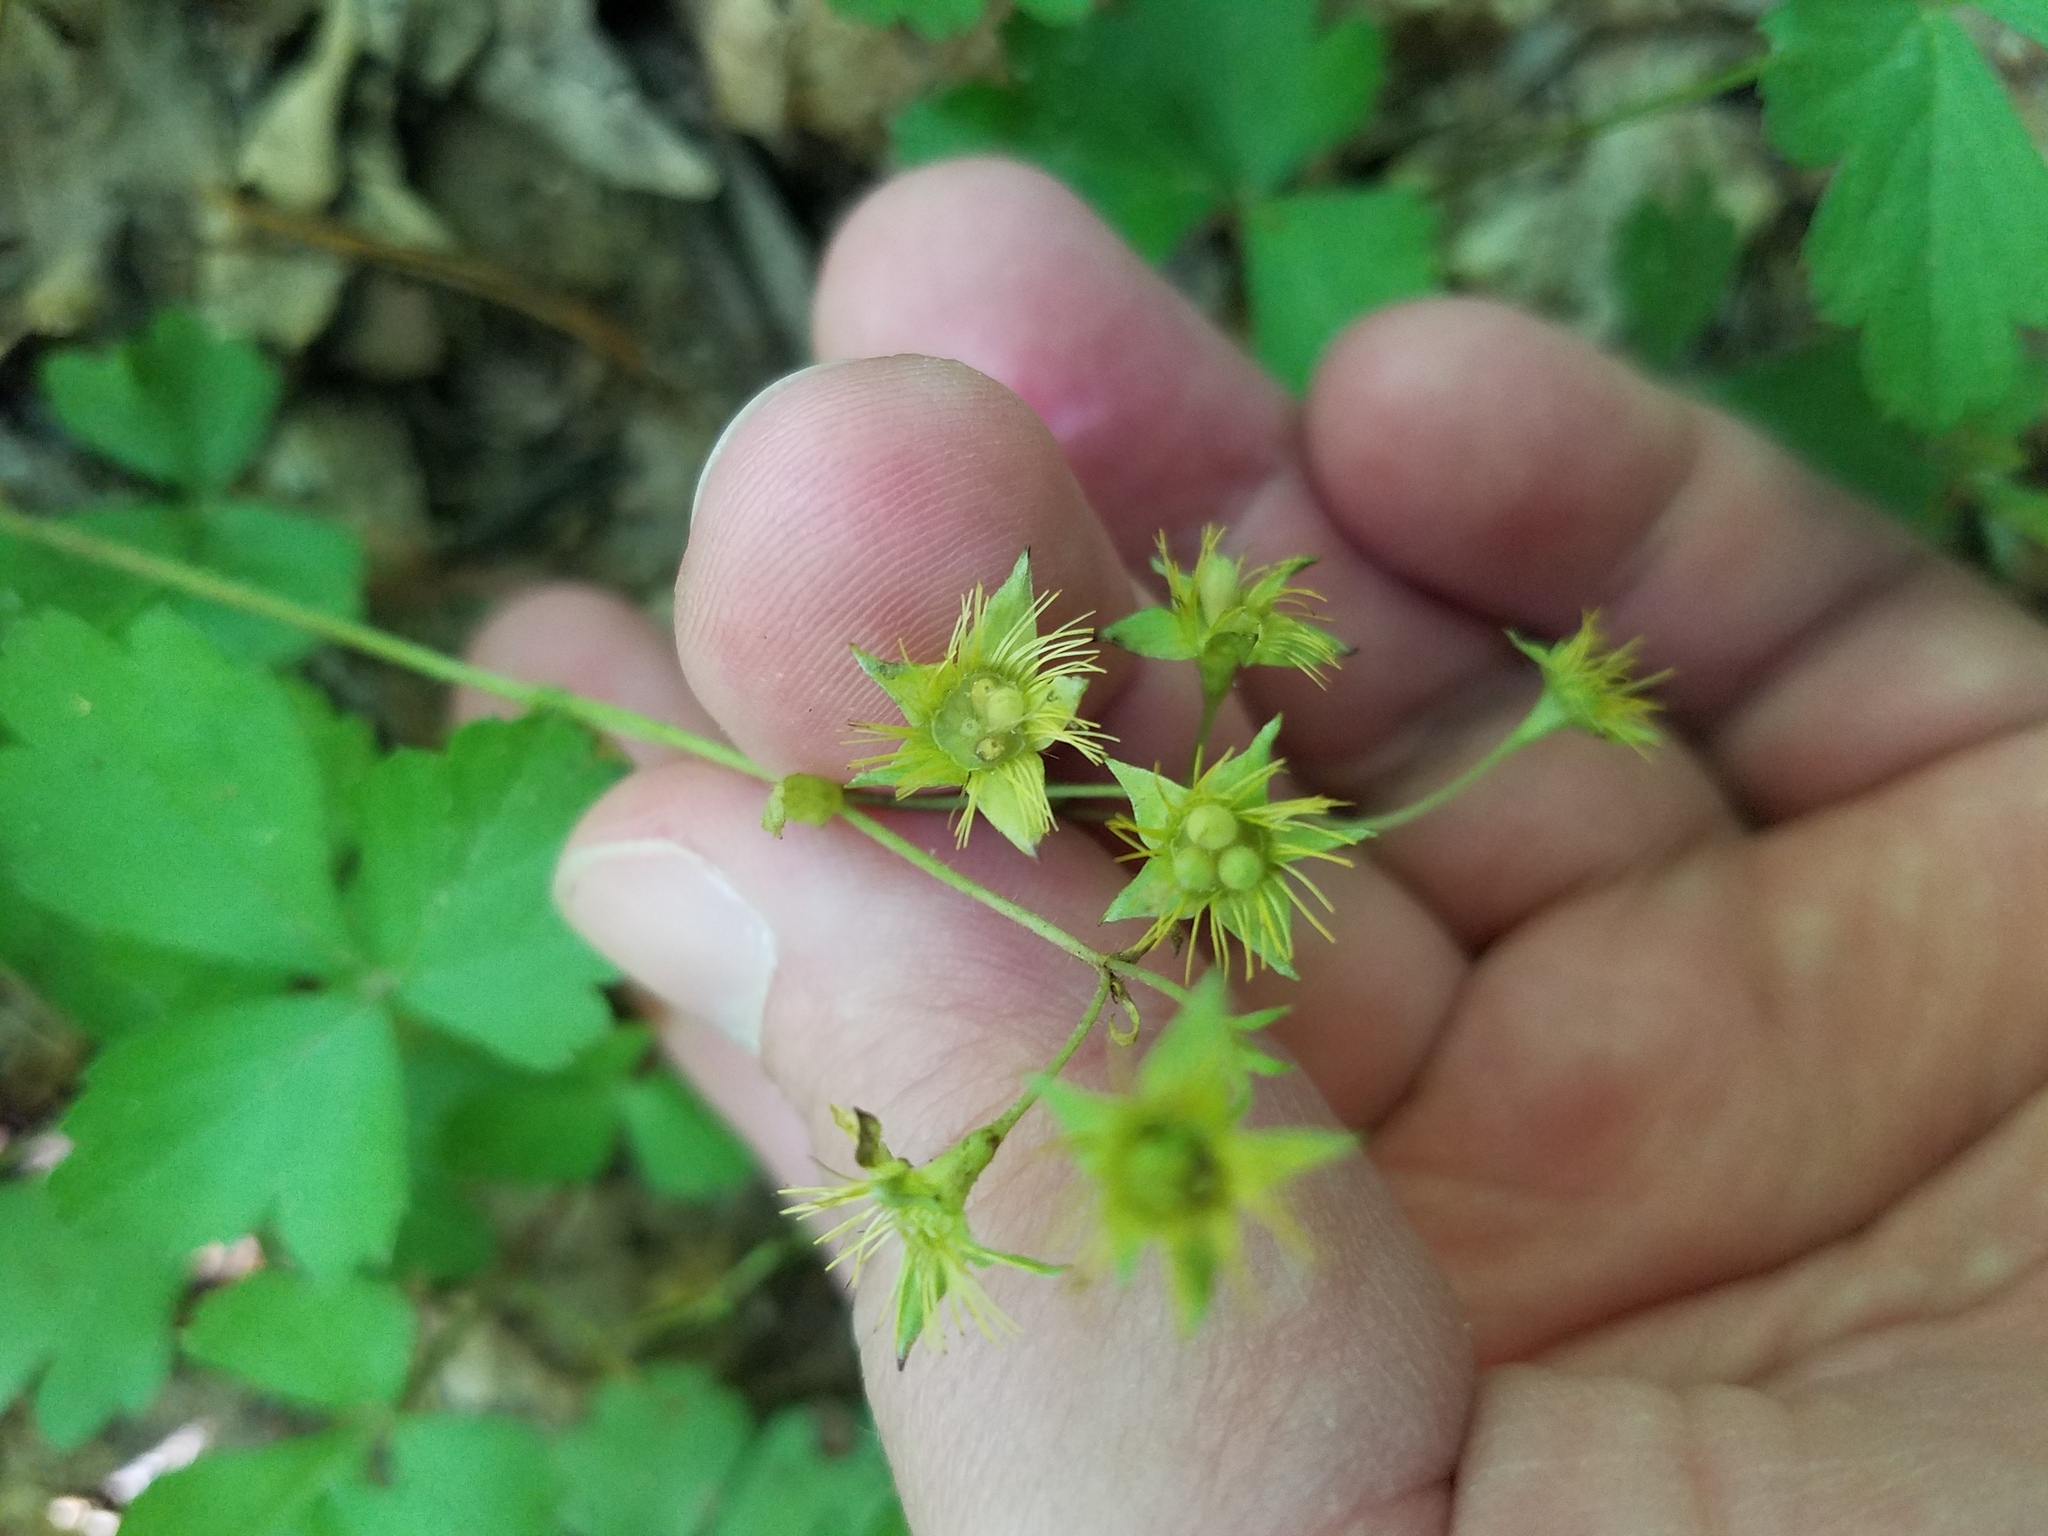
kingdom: Plantae
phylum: Tracheophyta
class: Magnoliopsida
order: Rosales
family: Rosaceae
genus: Geum
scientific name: Geum fragarioides
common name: Appalachian barren strawberry
